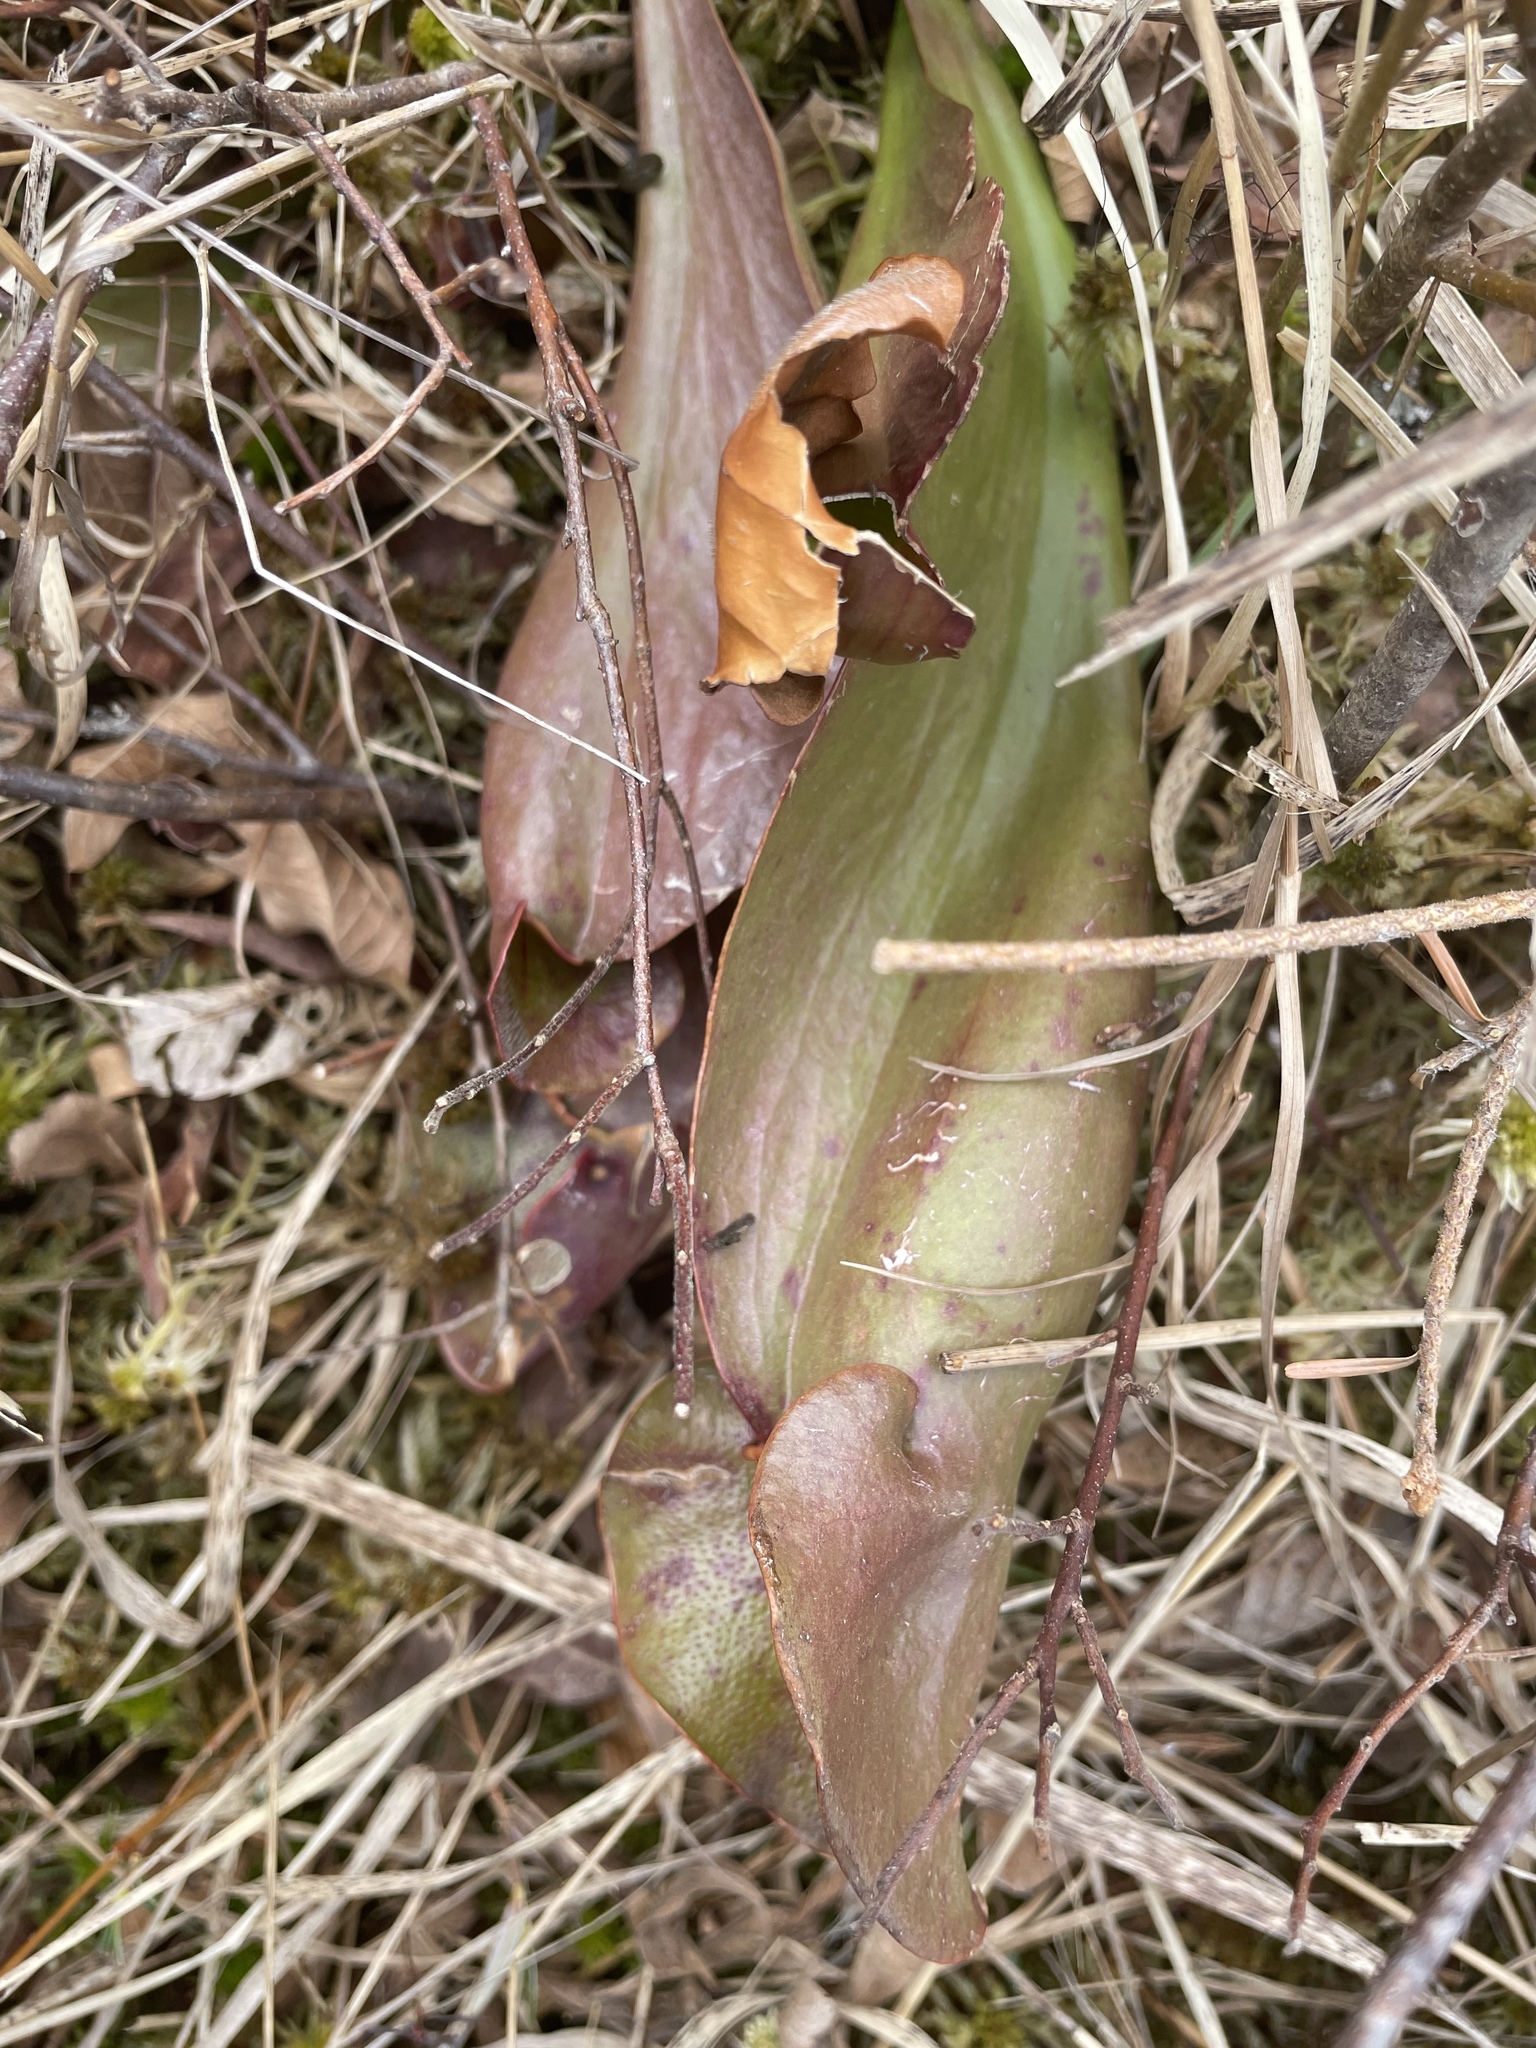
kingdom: Plantae
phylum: Tracheophyta
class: Magnoliopsida
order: Ericales
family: Sarraceniaceae
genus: Sarracenia
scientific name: Sarracenia purpurea
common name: Pitcherplant
